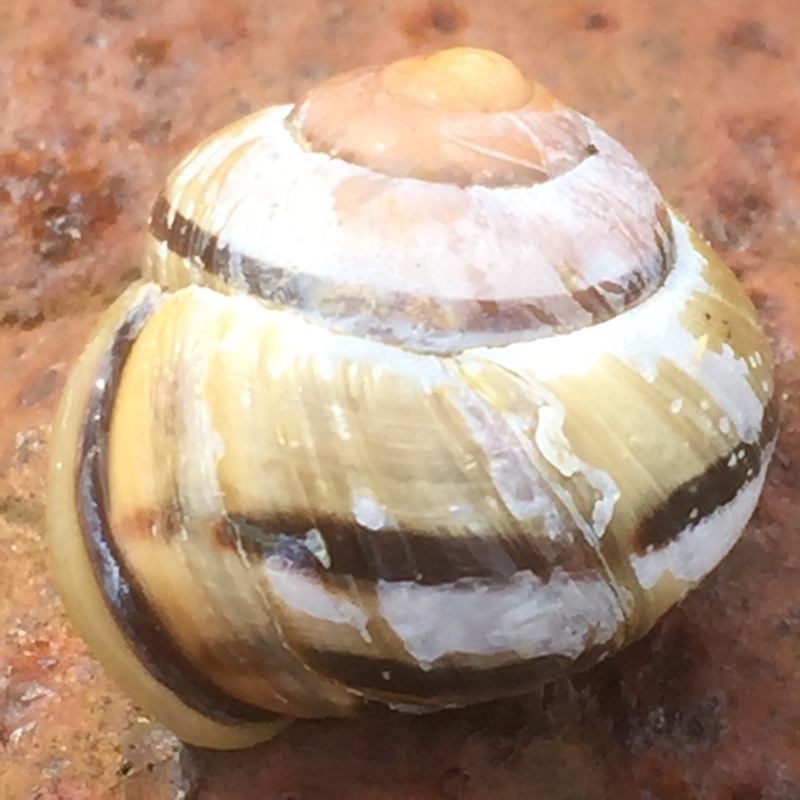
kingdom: Animalia
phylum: Mollusca
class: Gastropoda
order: Stylommatophora
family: Helicidae
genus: Cepaea
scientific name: Cepaea nemoralis
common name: Grovesnail
